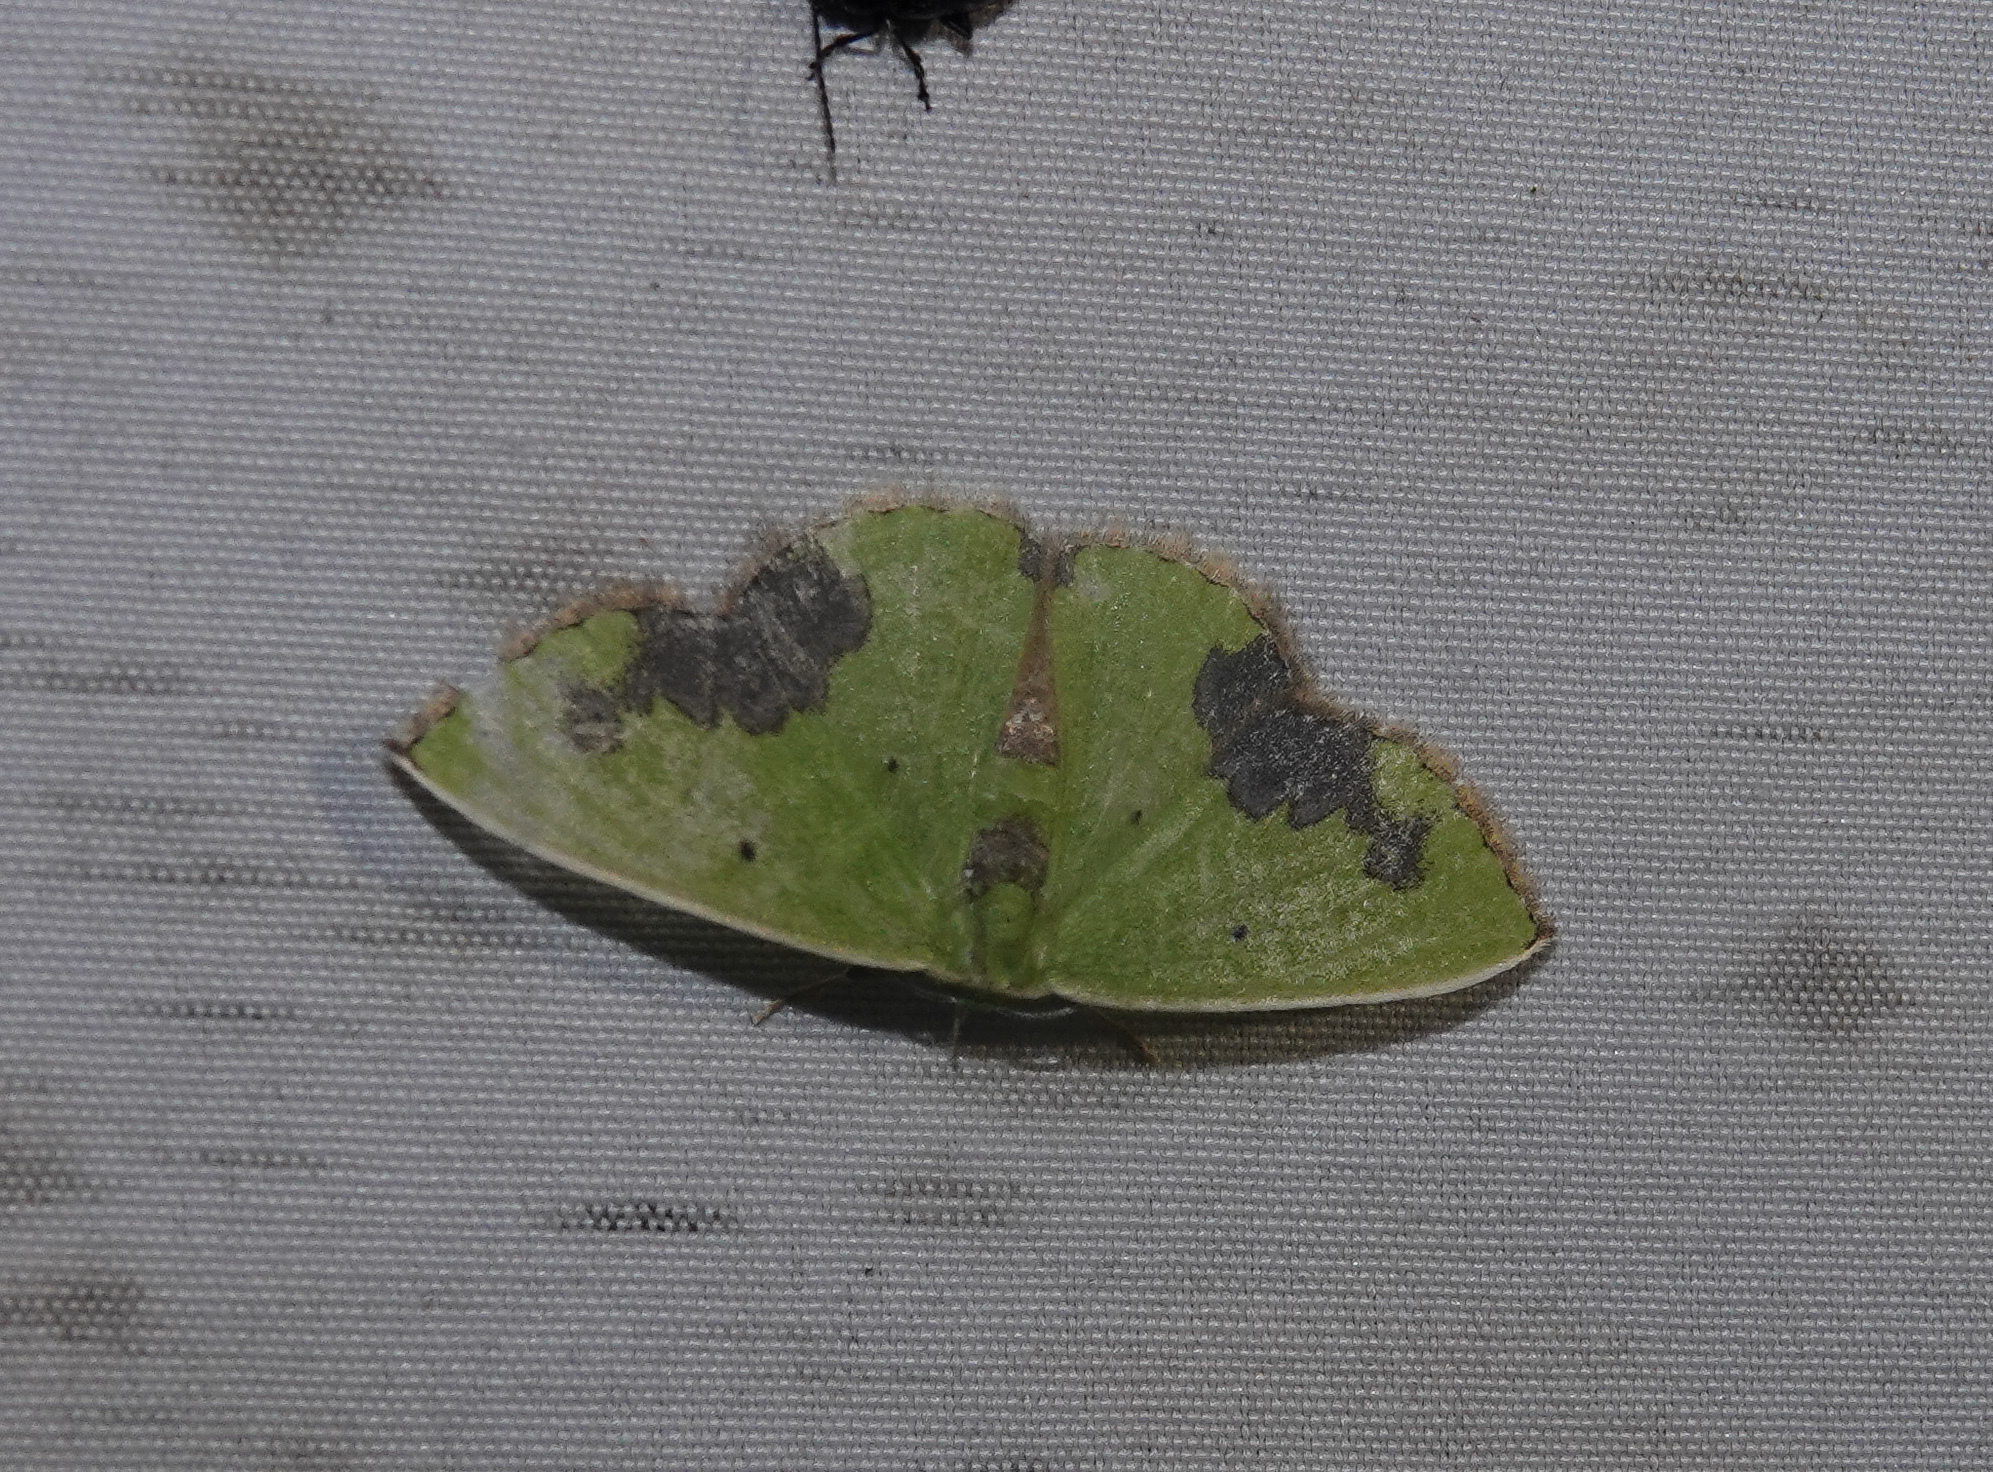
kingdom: Animalia
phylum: Arthropoda
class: Insecta
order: Lepidoptera
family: Geometridae
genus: Comibaena
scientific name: Comibaena attenuata
